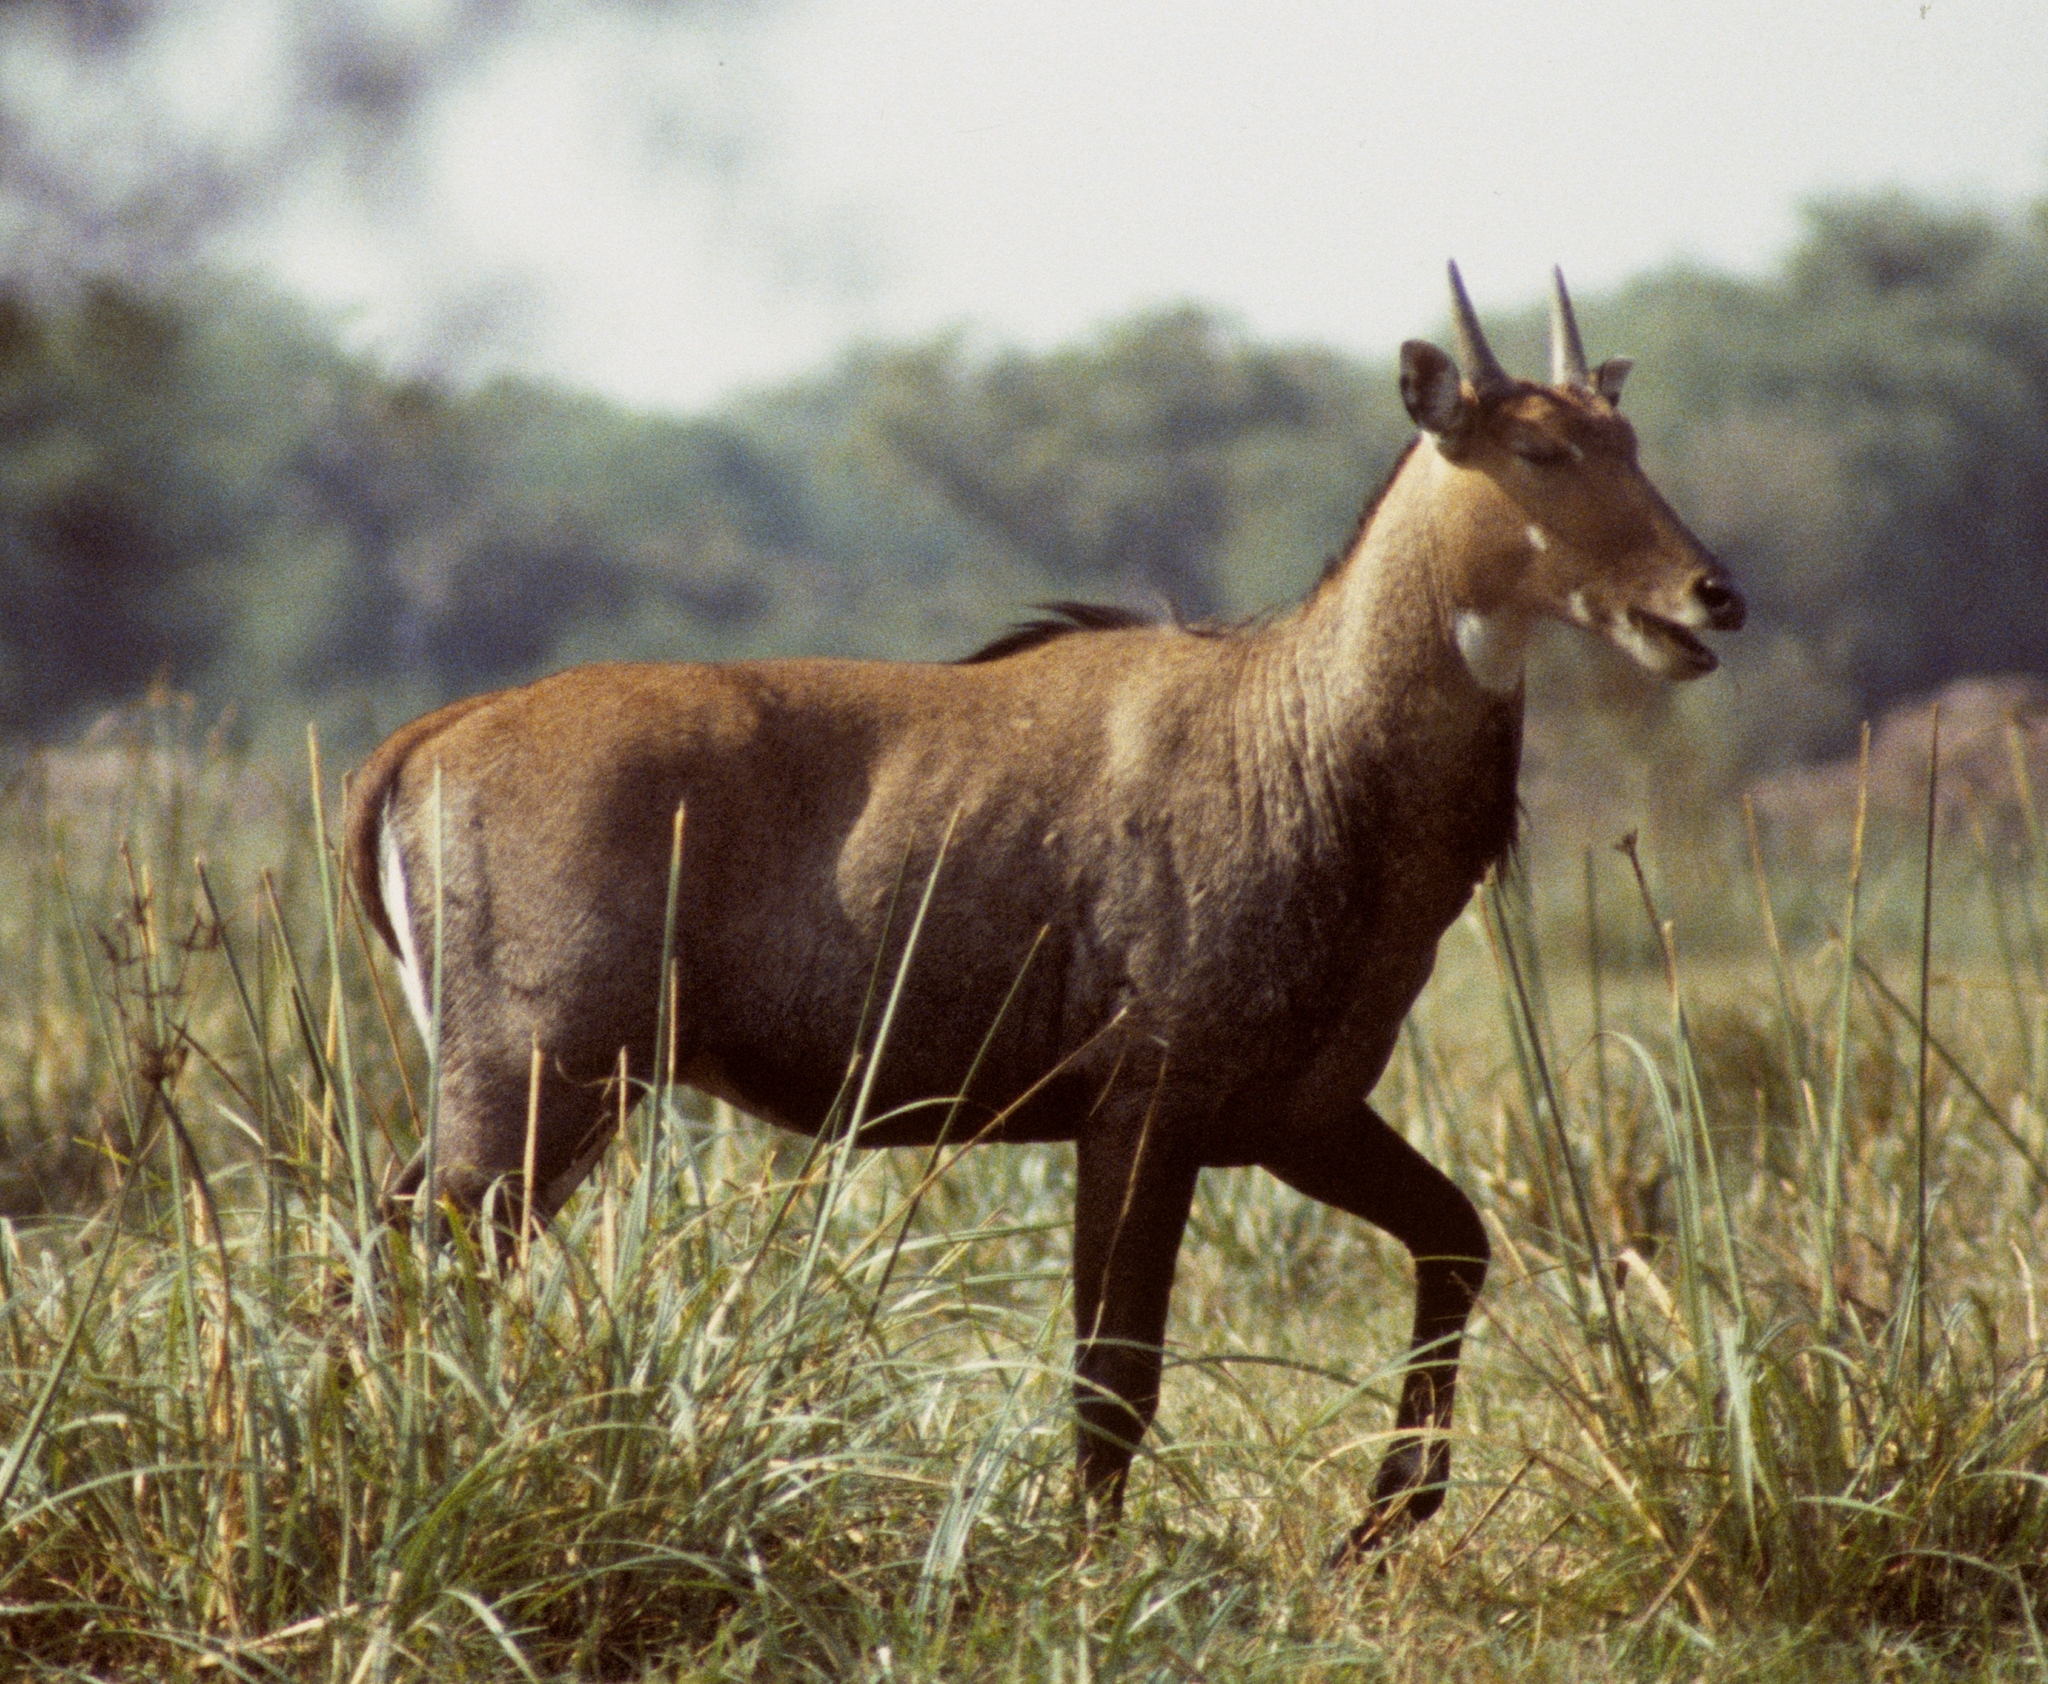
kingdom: Animalia
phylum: Chordata
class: Mammalia
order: Artiodactyla
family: Bovidae
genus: Boselaphus
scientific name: Boselaphus tragocamelus
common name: Nilgai
